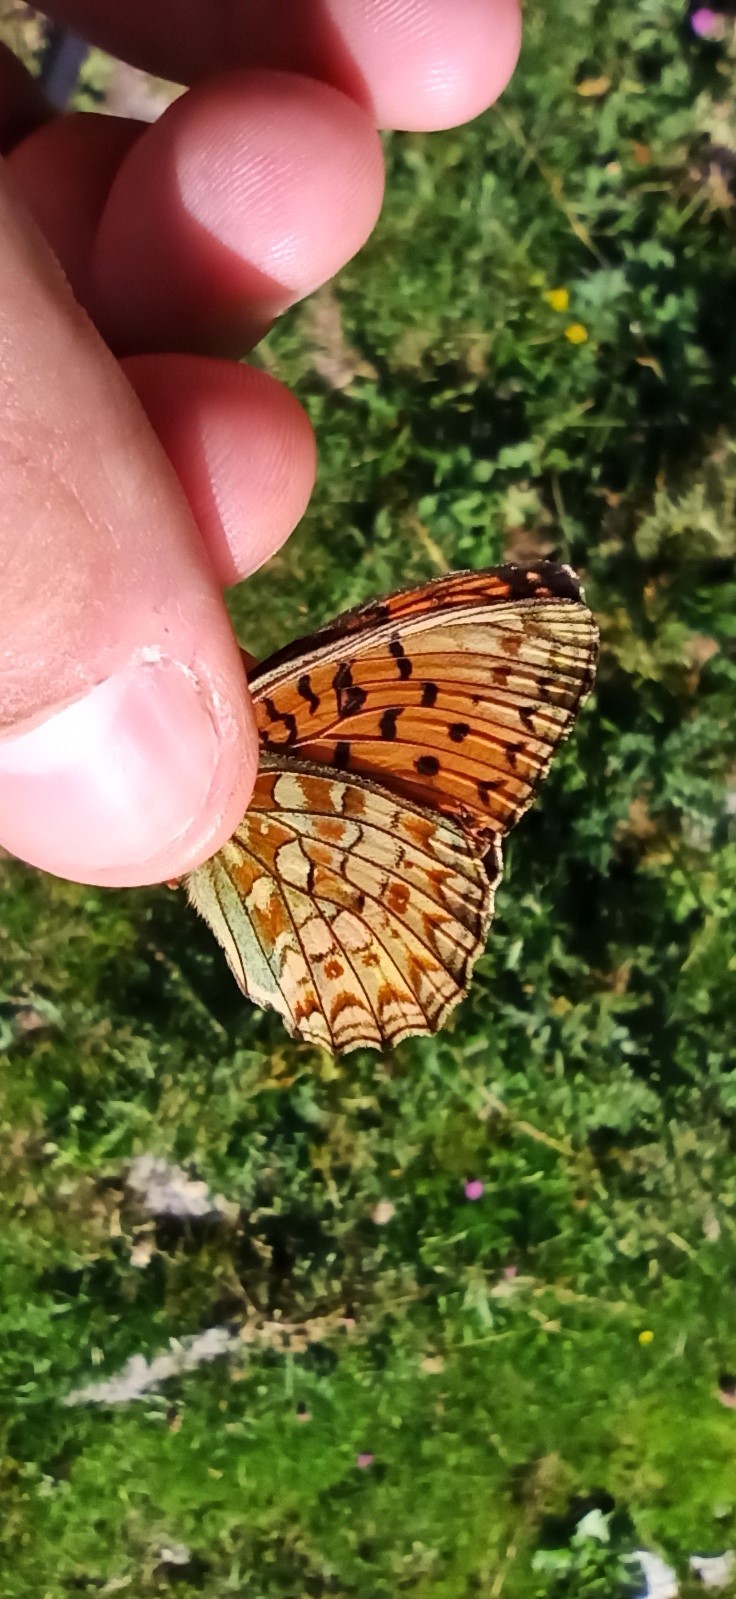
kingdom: Animalia
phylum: Arthropoda
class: Insecta
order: Lepidoptera
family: Nymphalidae
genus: Fabriciana
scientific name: Fabriciana niobe
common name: Niobe fritillary
